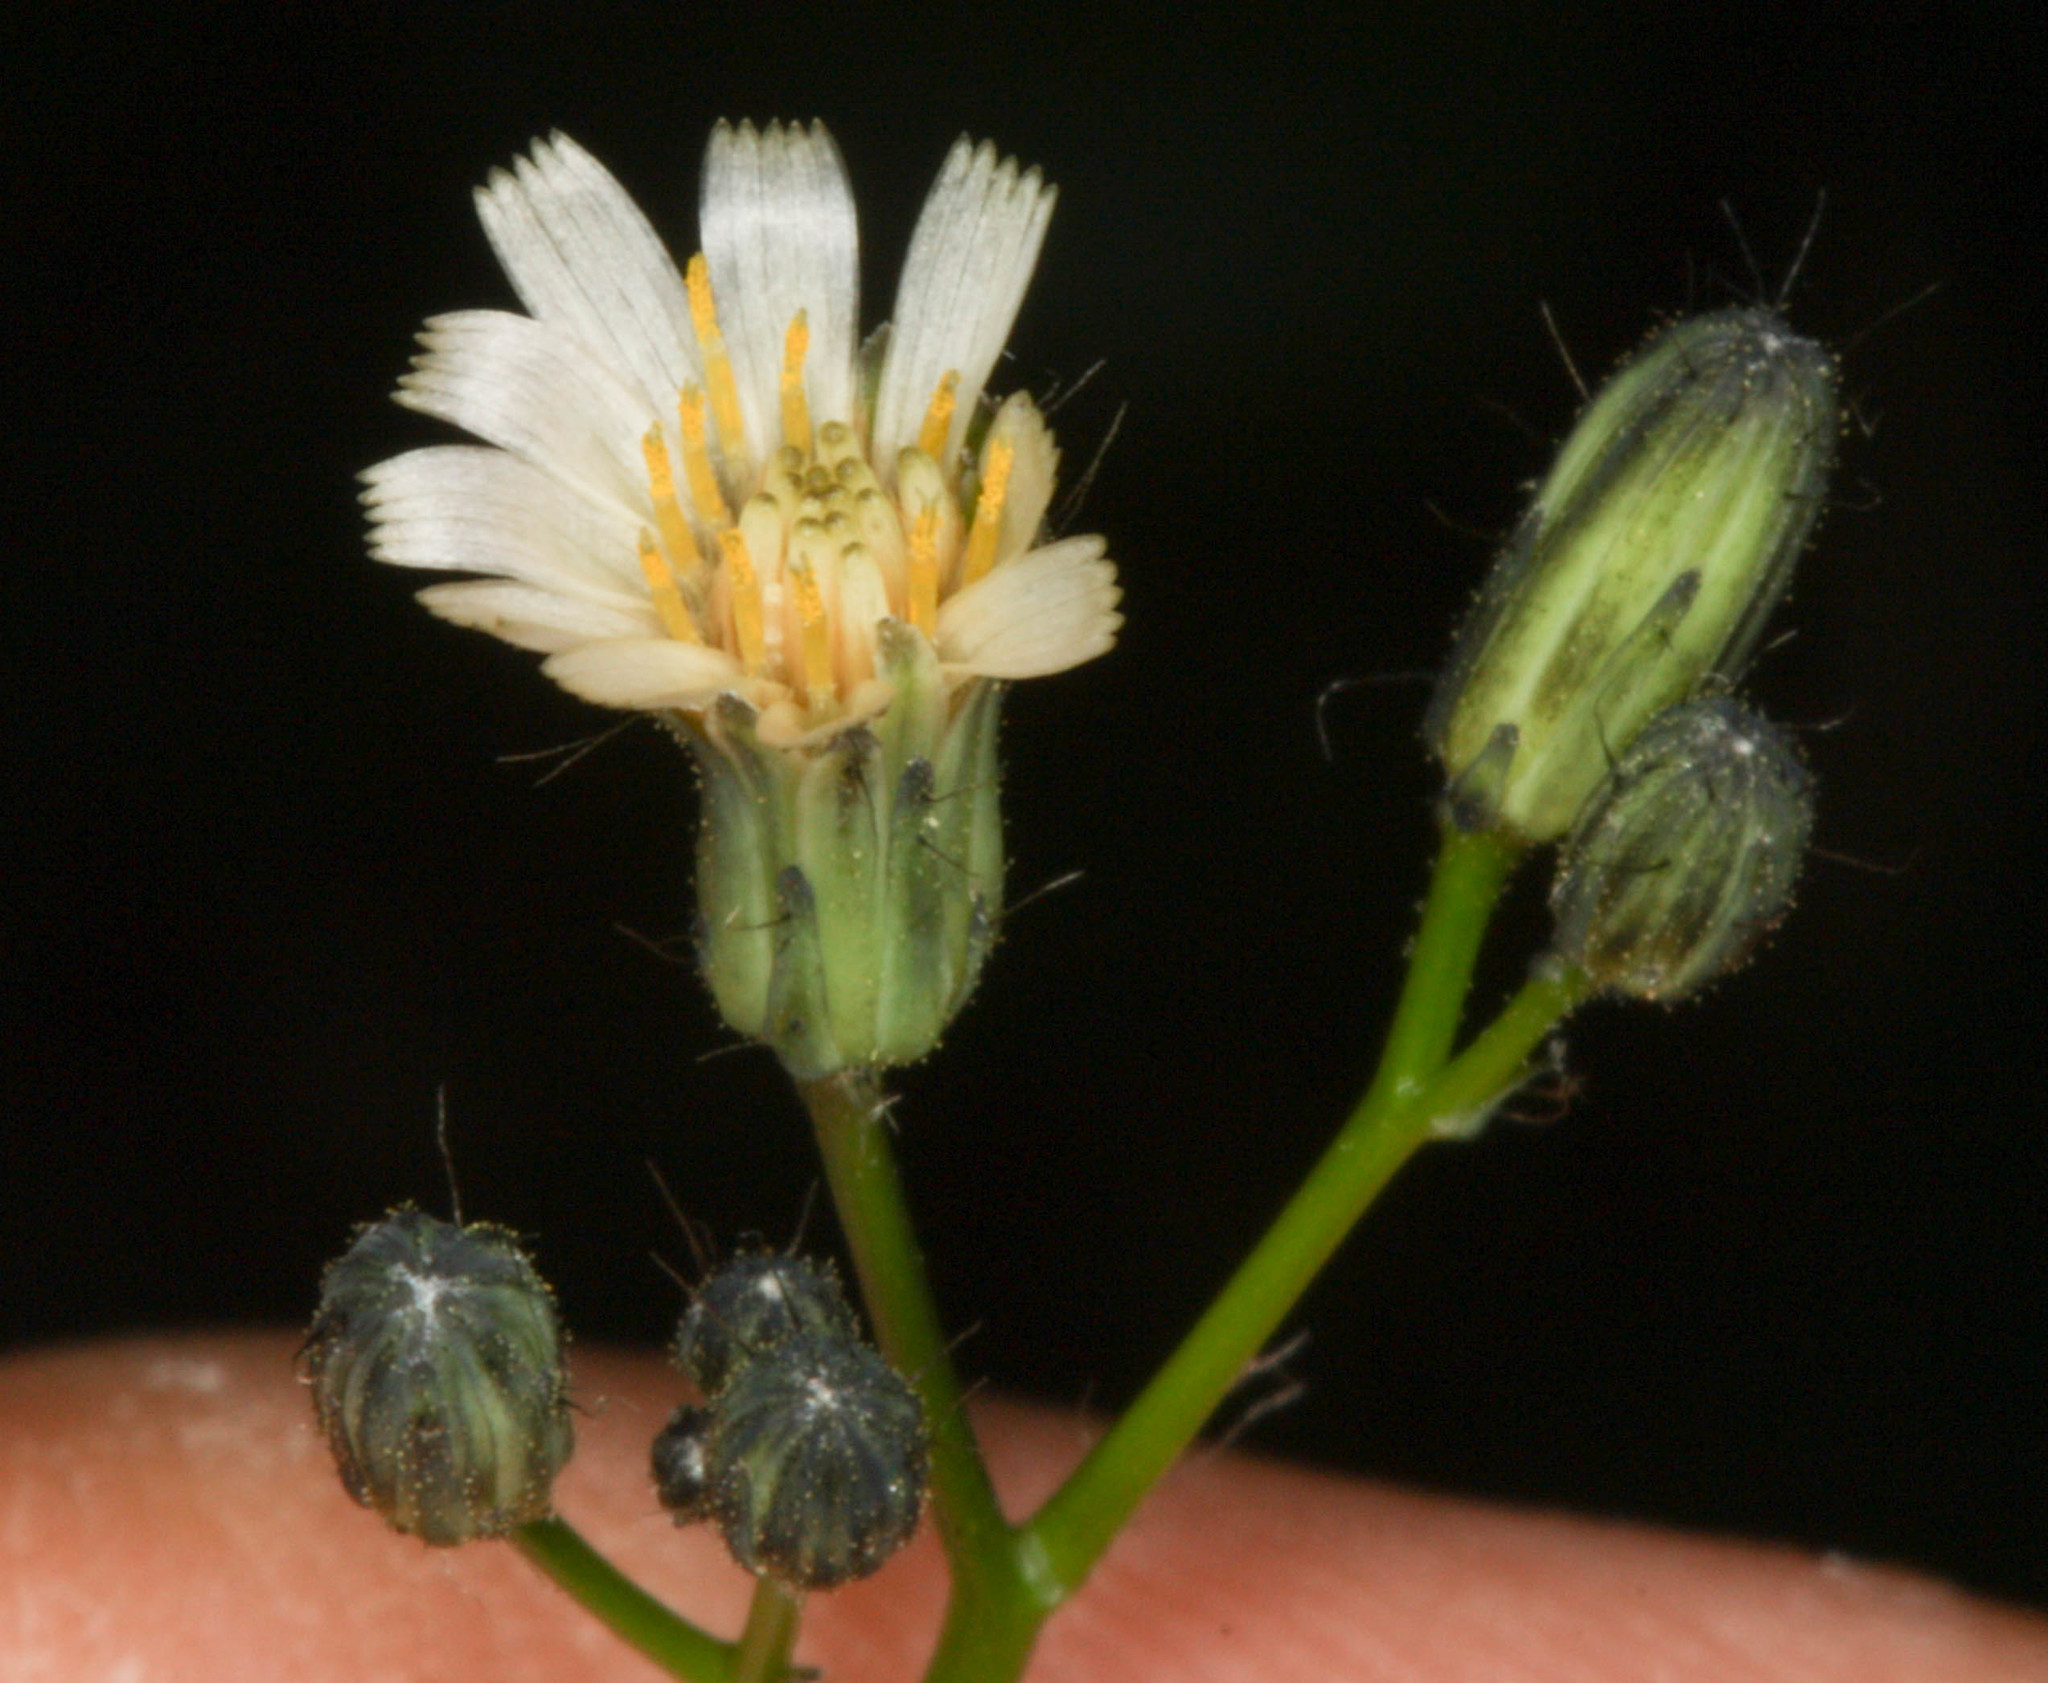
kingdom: Plantae
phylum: Tracheophyta
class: Magnoliopsida
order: Asterales
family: Asteraceae
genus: Hieracium
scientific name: Hieracium albiflorum
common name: White hawkweed
